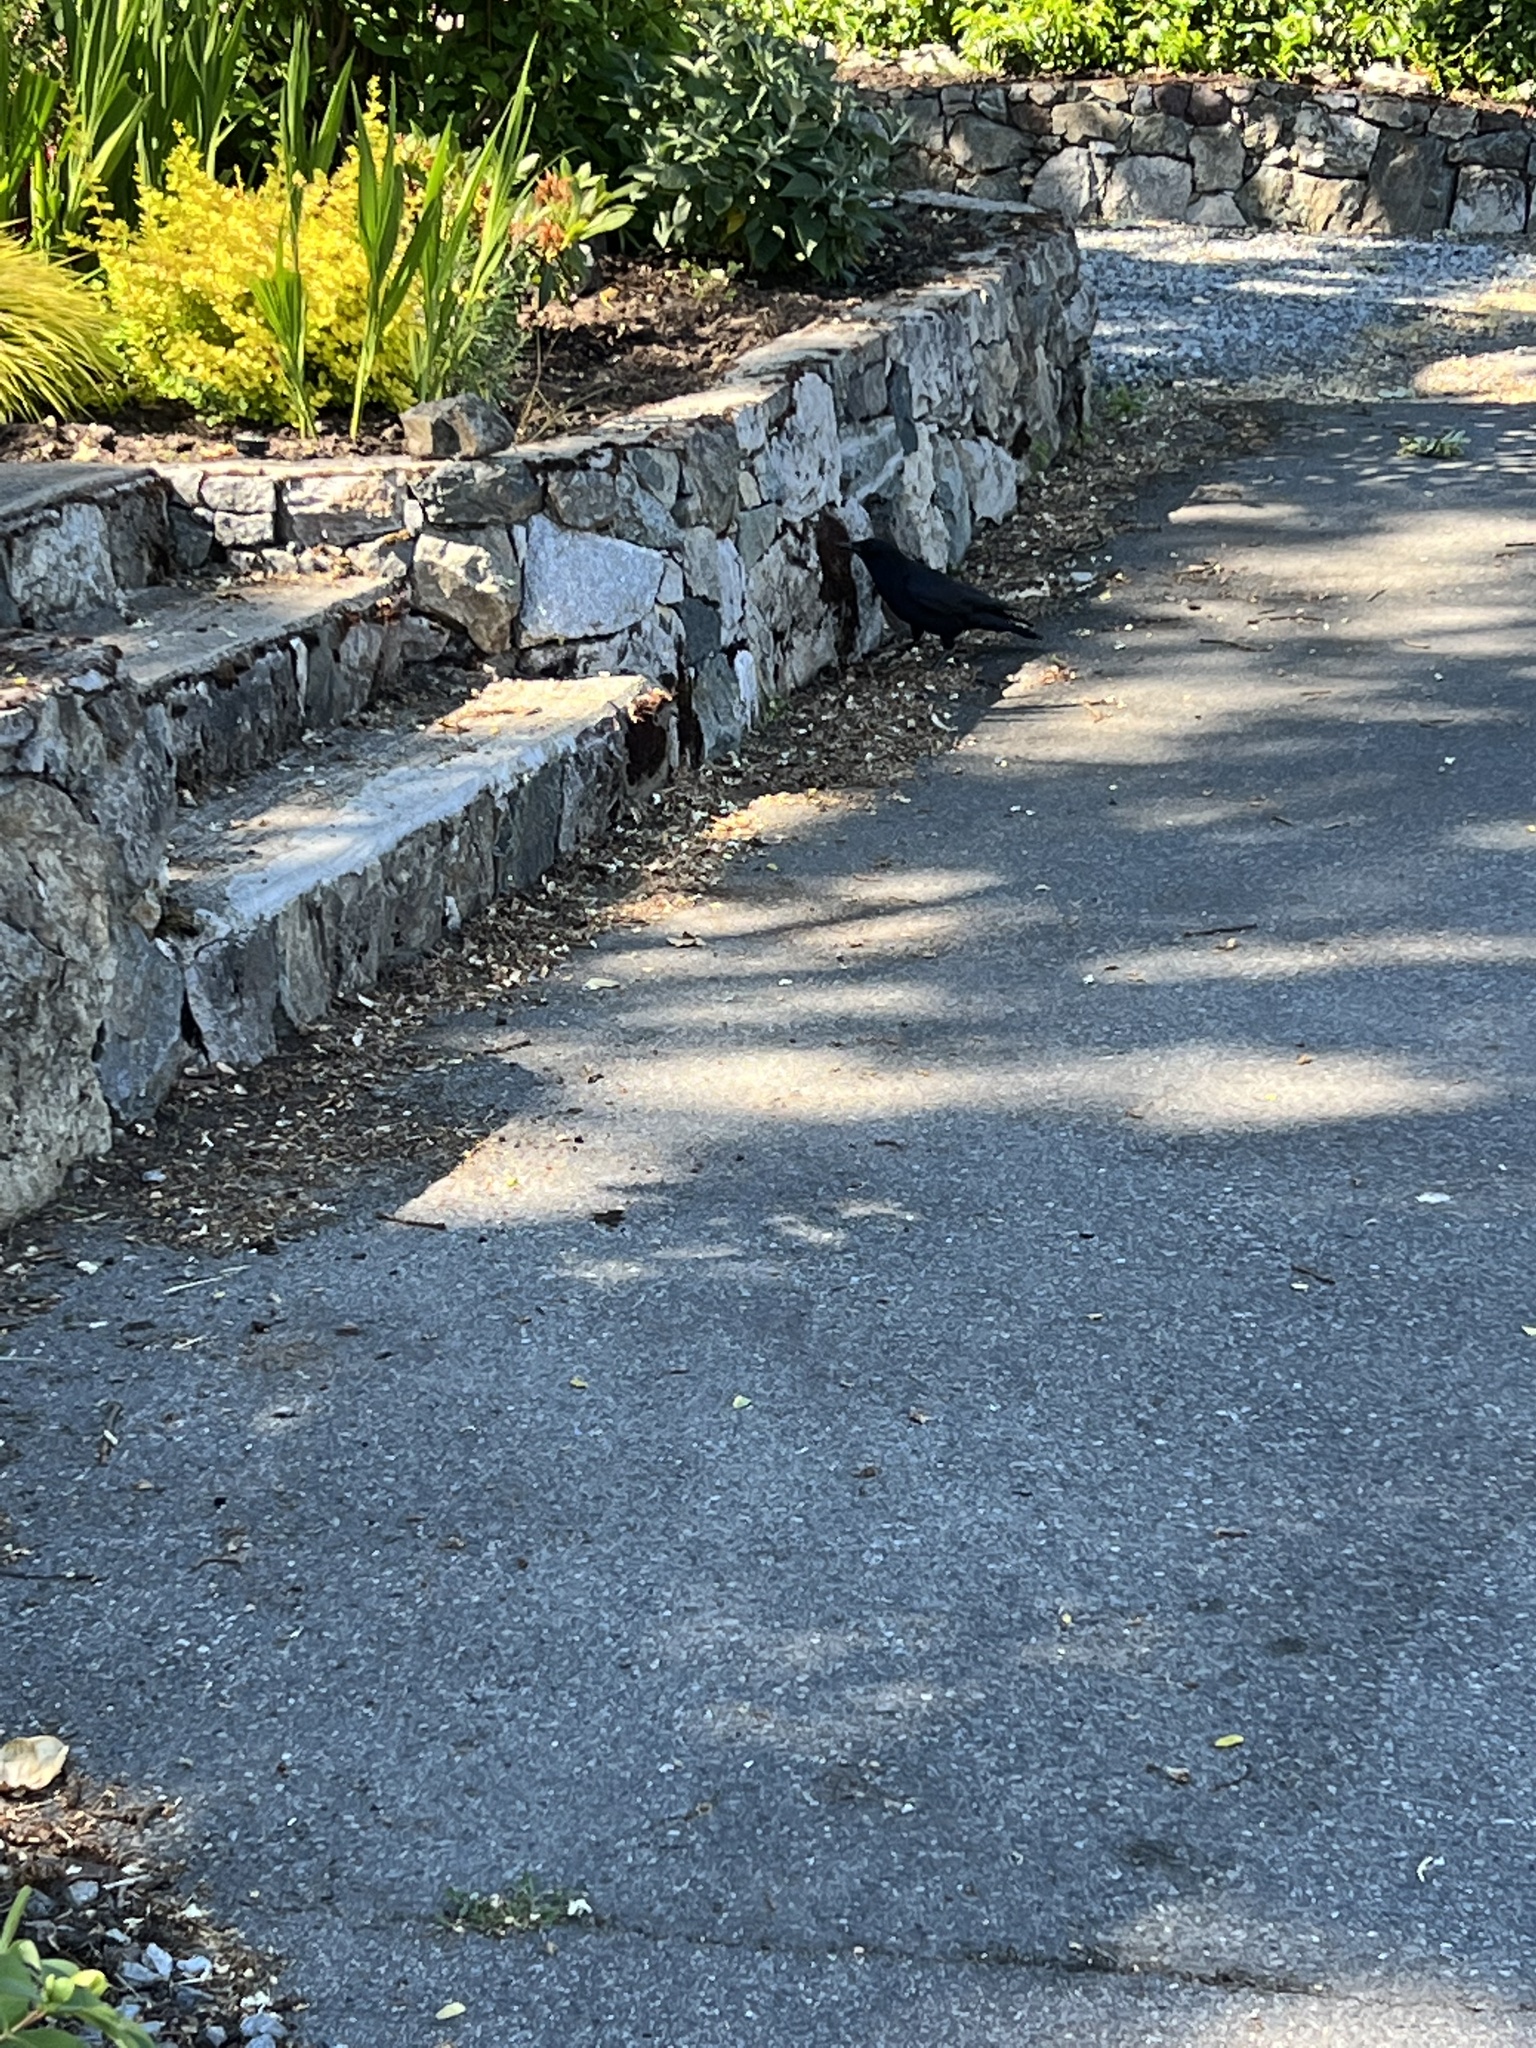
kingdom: Animalia
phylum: Chordata
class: Aves
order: Passeriformes
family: Corvidae
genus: Corvus
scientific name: Corvus brachyrhynchos
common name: American crow
